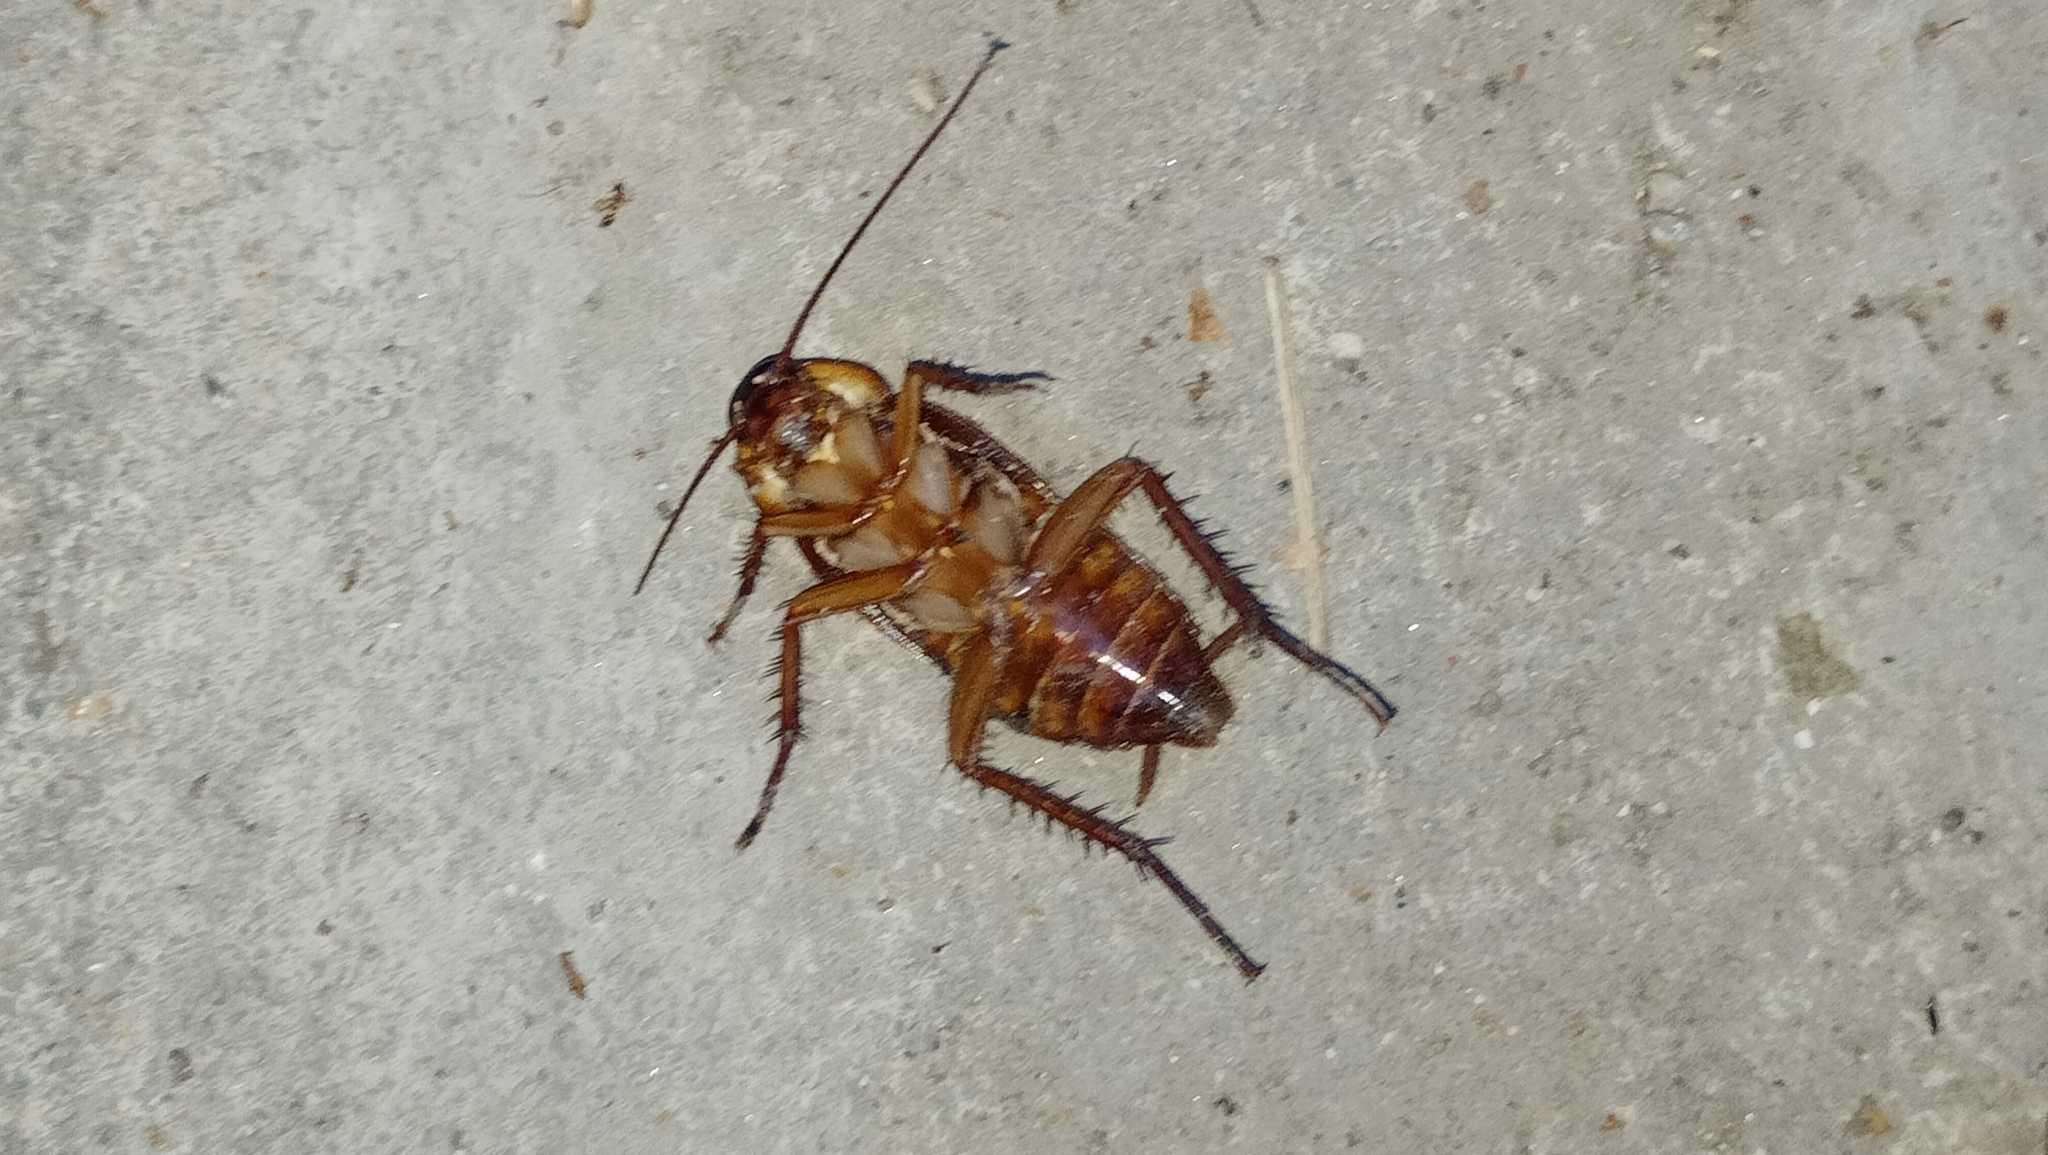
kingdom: Animalia
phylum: Arthropoda
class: Insecta
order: Blattodea
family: Blattidae
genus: Periplaneta
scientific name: Periplaneta americana
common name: American cockroach
